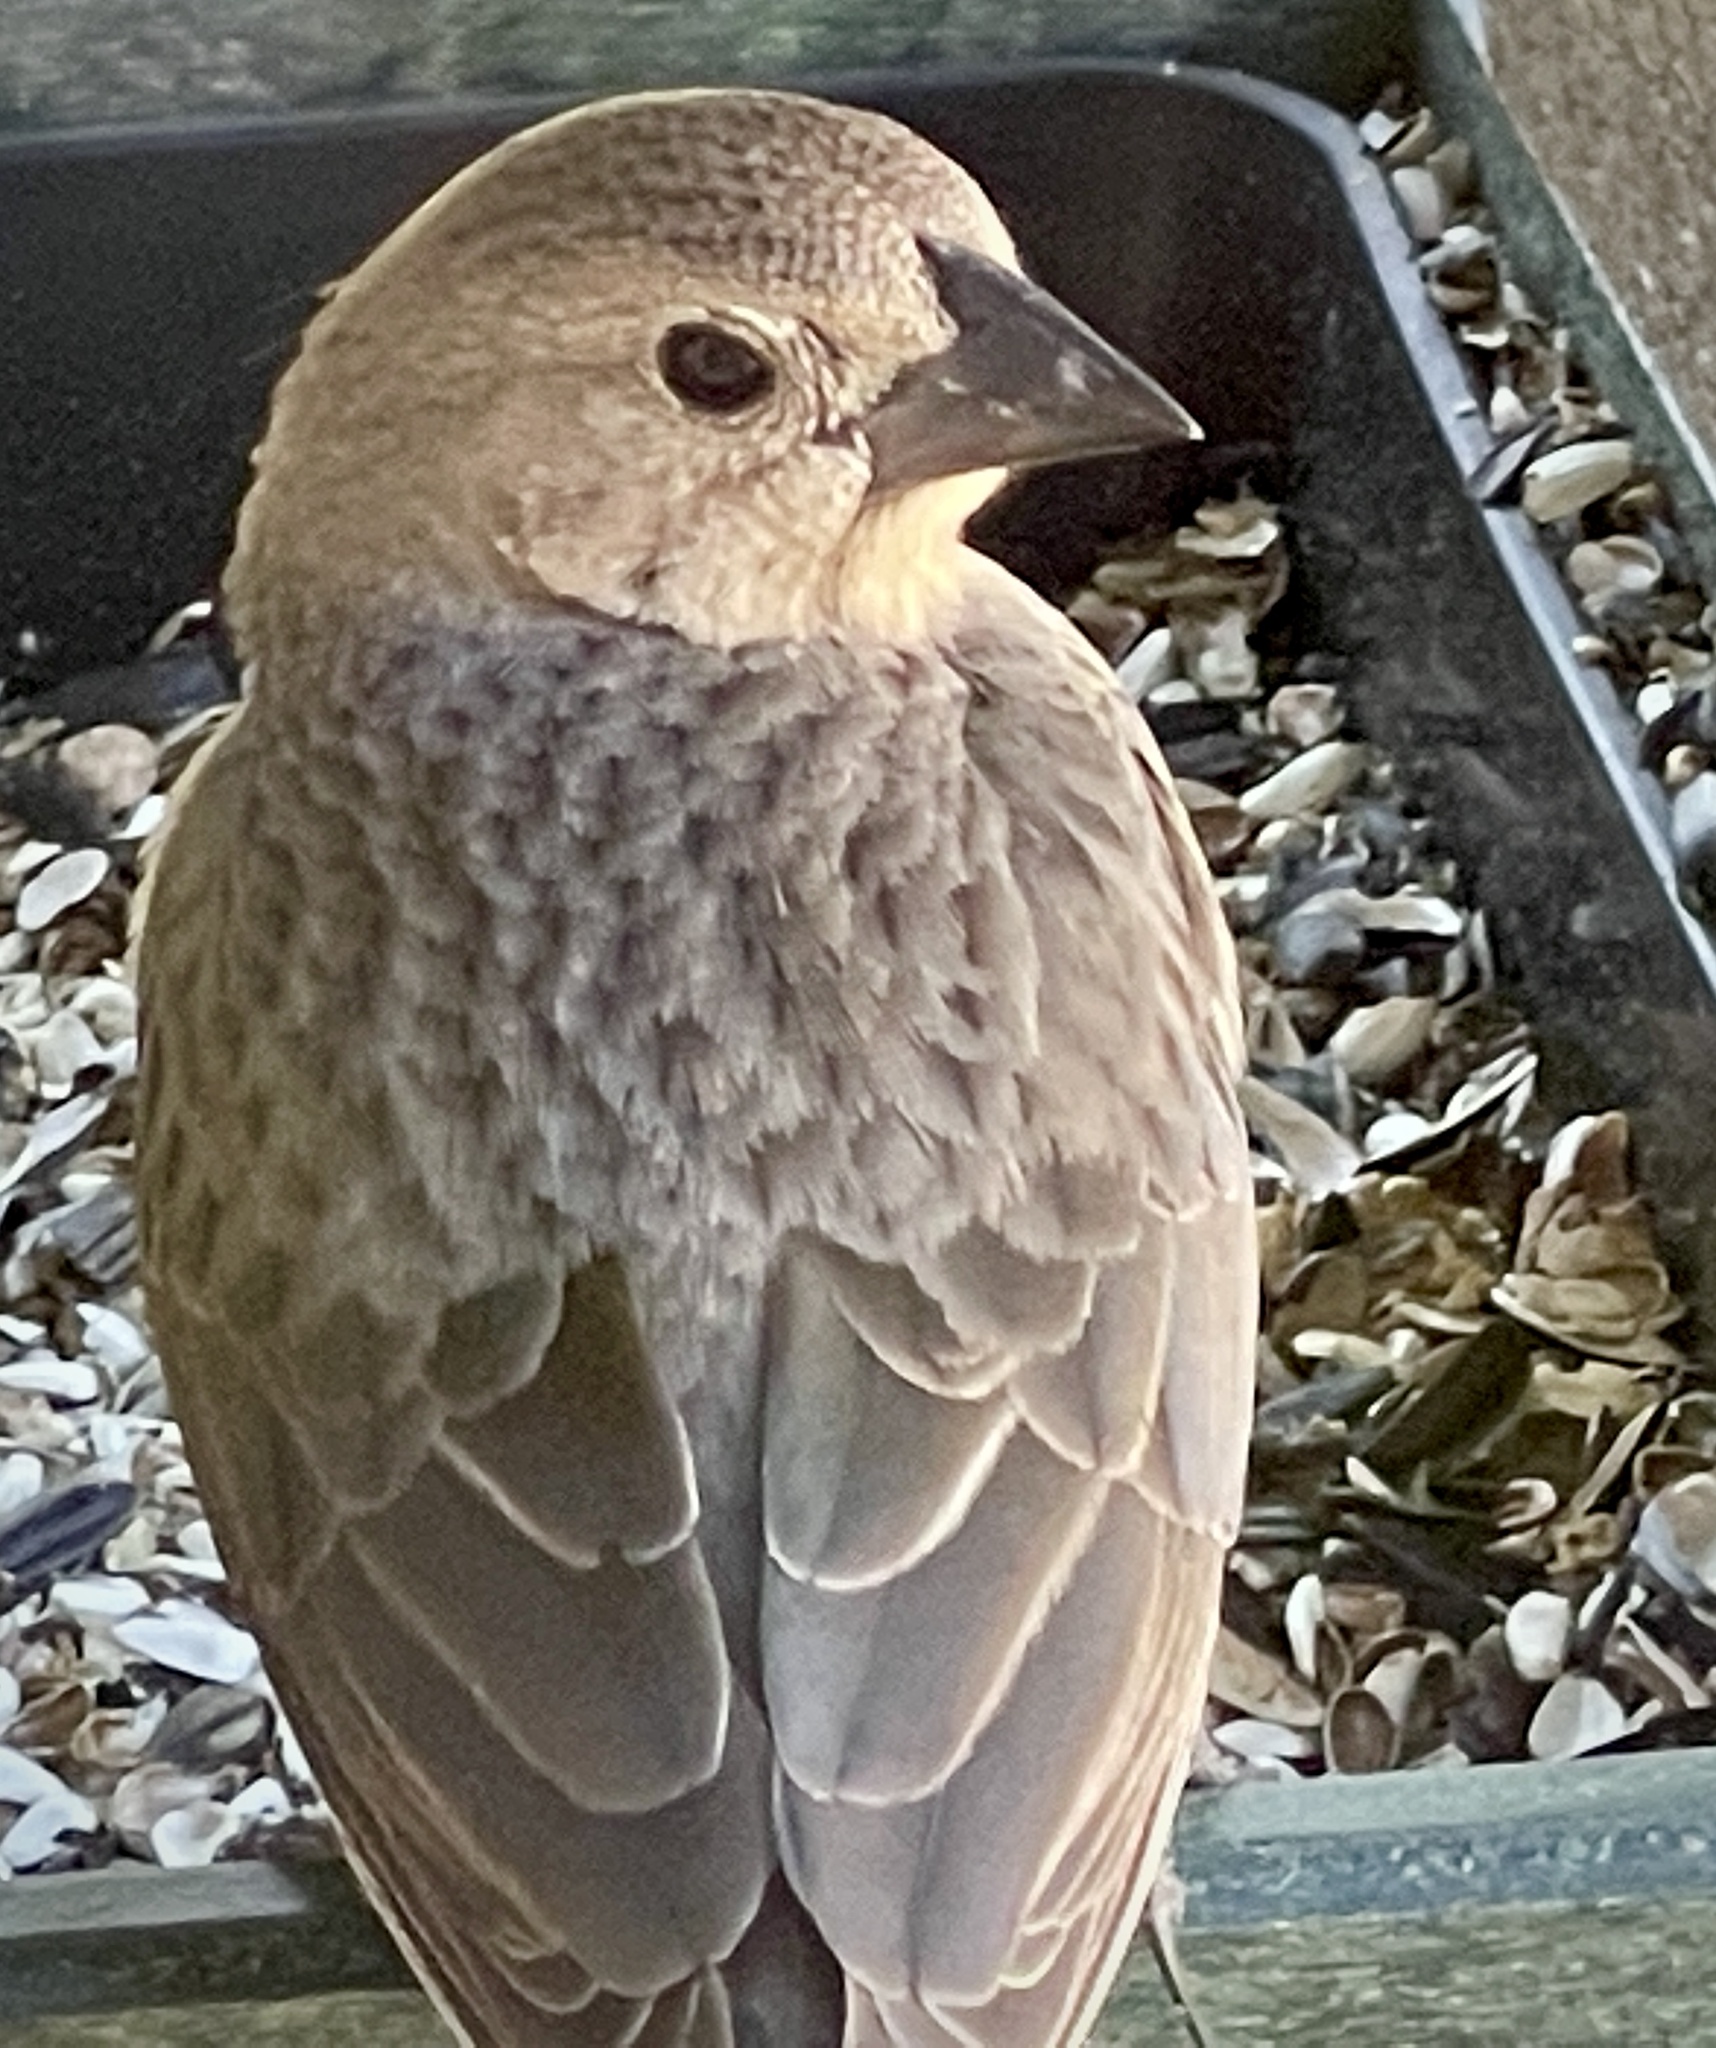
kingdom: Animalia
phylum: Chordata
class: Aves
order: Passeriformes
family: Icteridae
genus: Molothrus
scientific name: Molothrus ater
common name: Brown-headed cowbird
